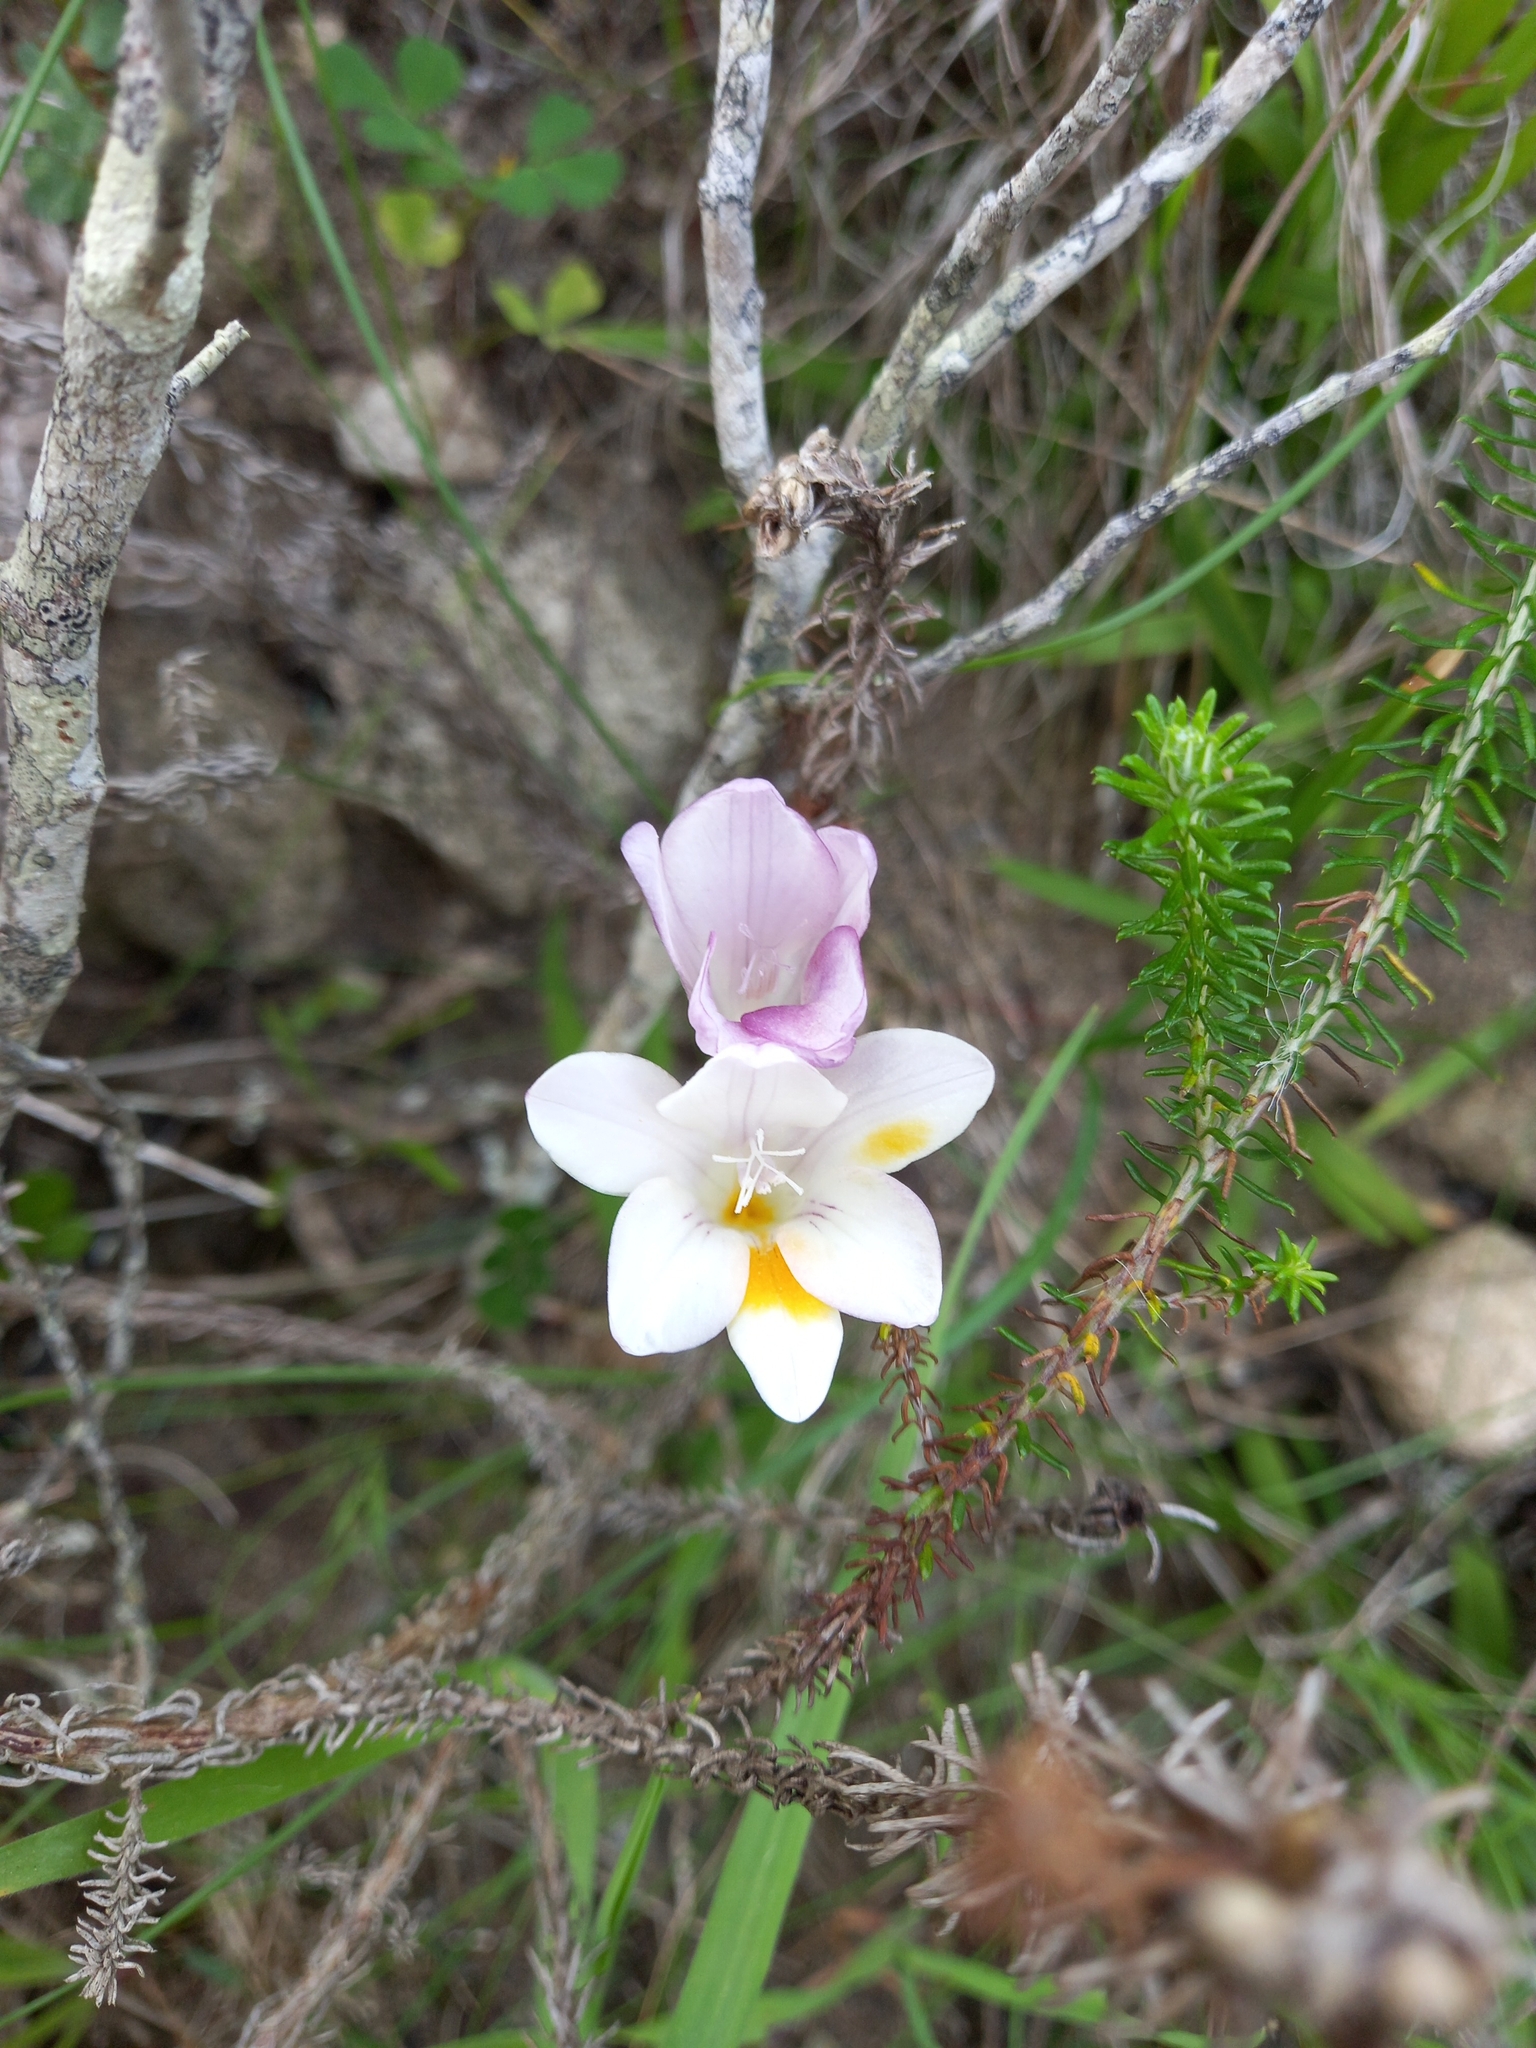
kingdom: Plantae
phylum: Tracheophyta
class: Liliopsida
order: Asparagales
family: Iridaceae
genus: Freesia
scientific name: Freesia leichtlinii
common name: Freesia
